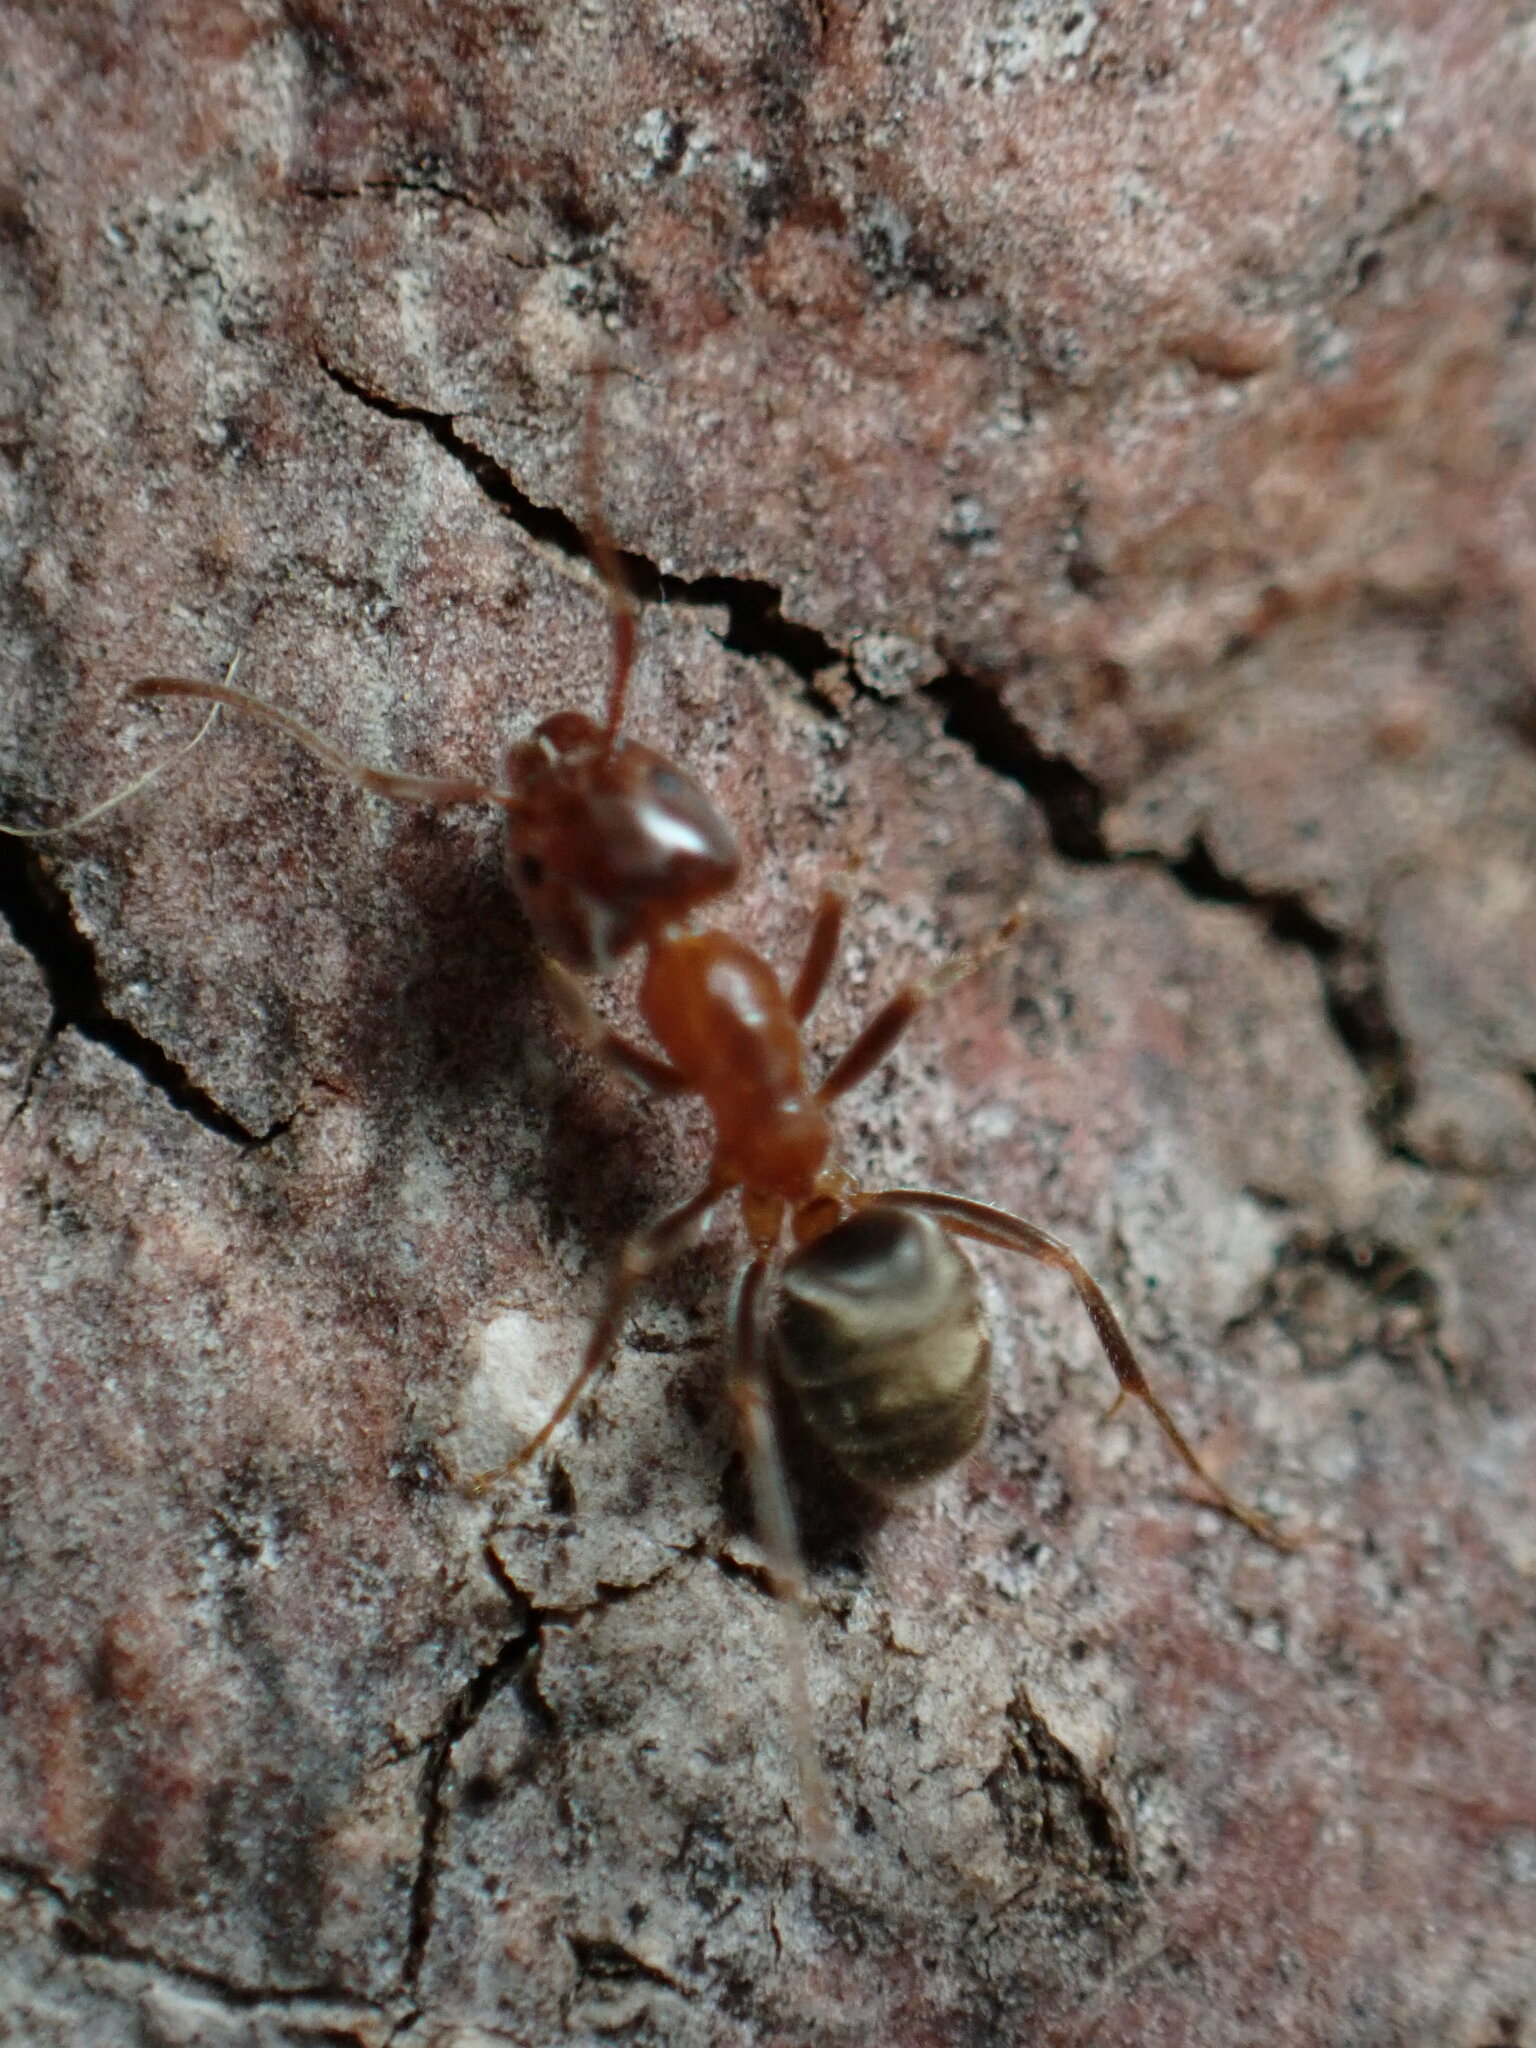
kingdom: Animalia
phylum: Arthropoda
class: Insecta
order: Hymenoptera
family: Formicidae
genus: Liometopum
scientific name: Liometopum occidentale
